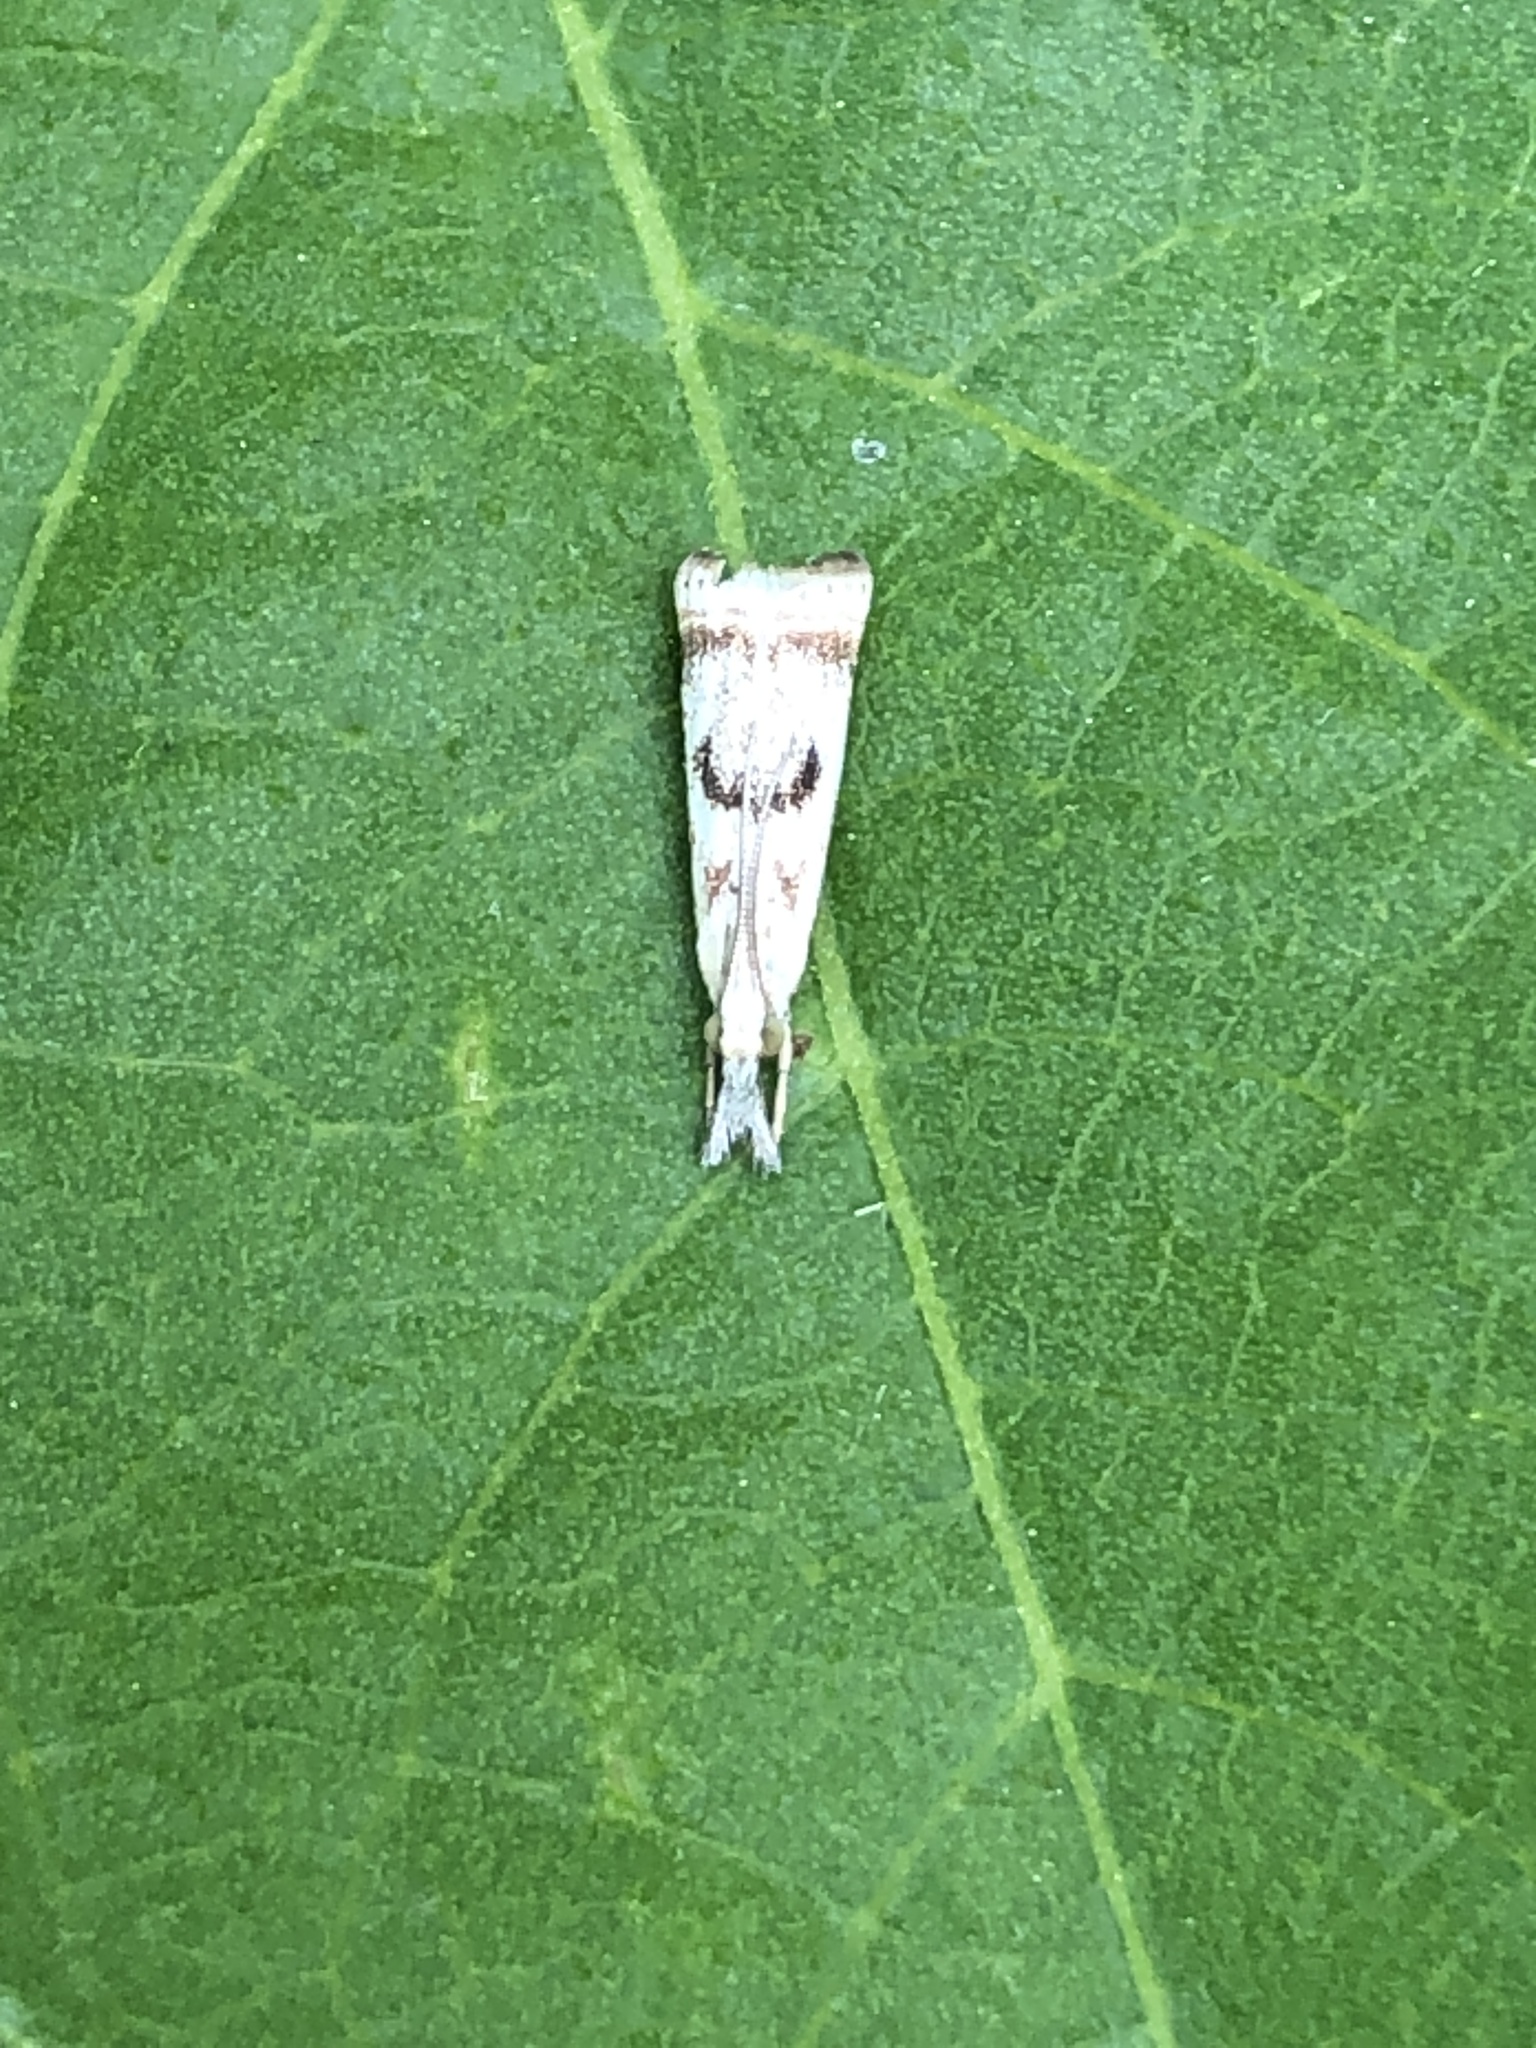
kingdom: Animalia
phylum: Arthropoda
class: Insecta
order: Lepidoptera
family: Crambidae
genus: Microcrambus
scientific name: Microcrambus elegans
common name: Elegant grass-veneer
